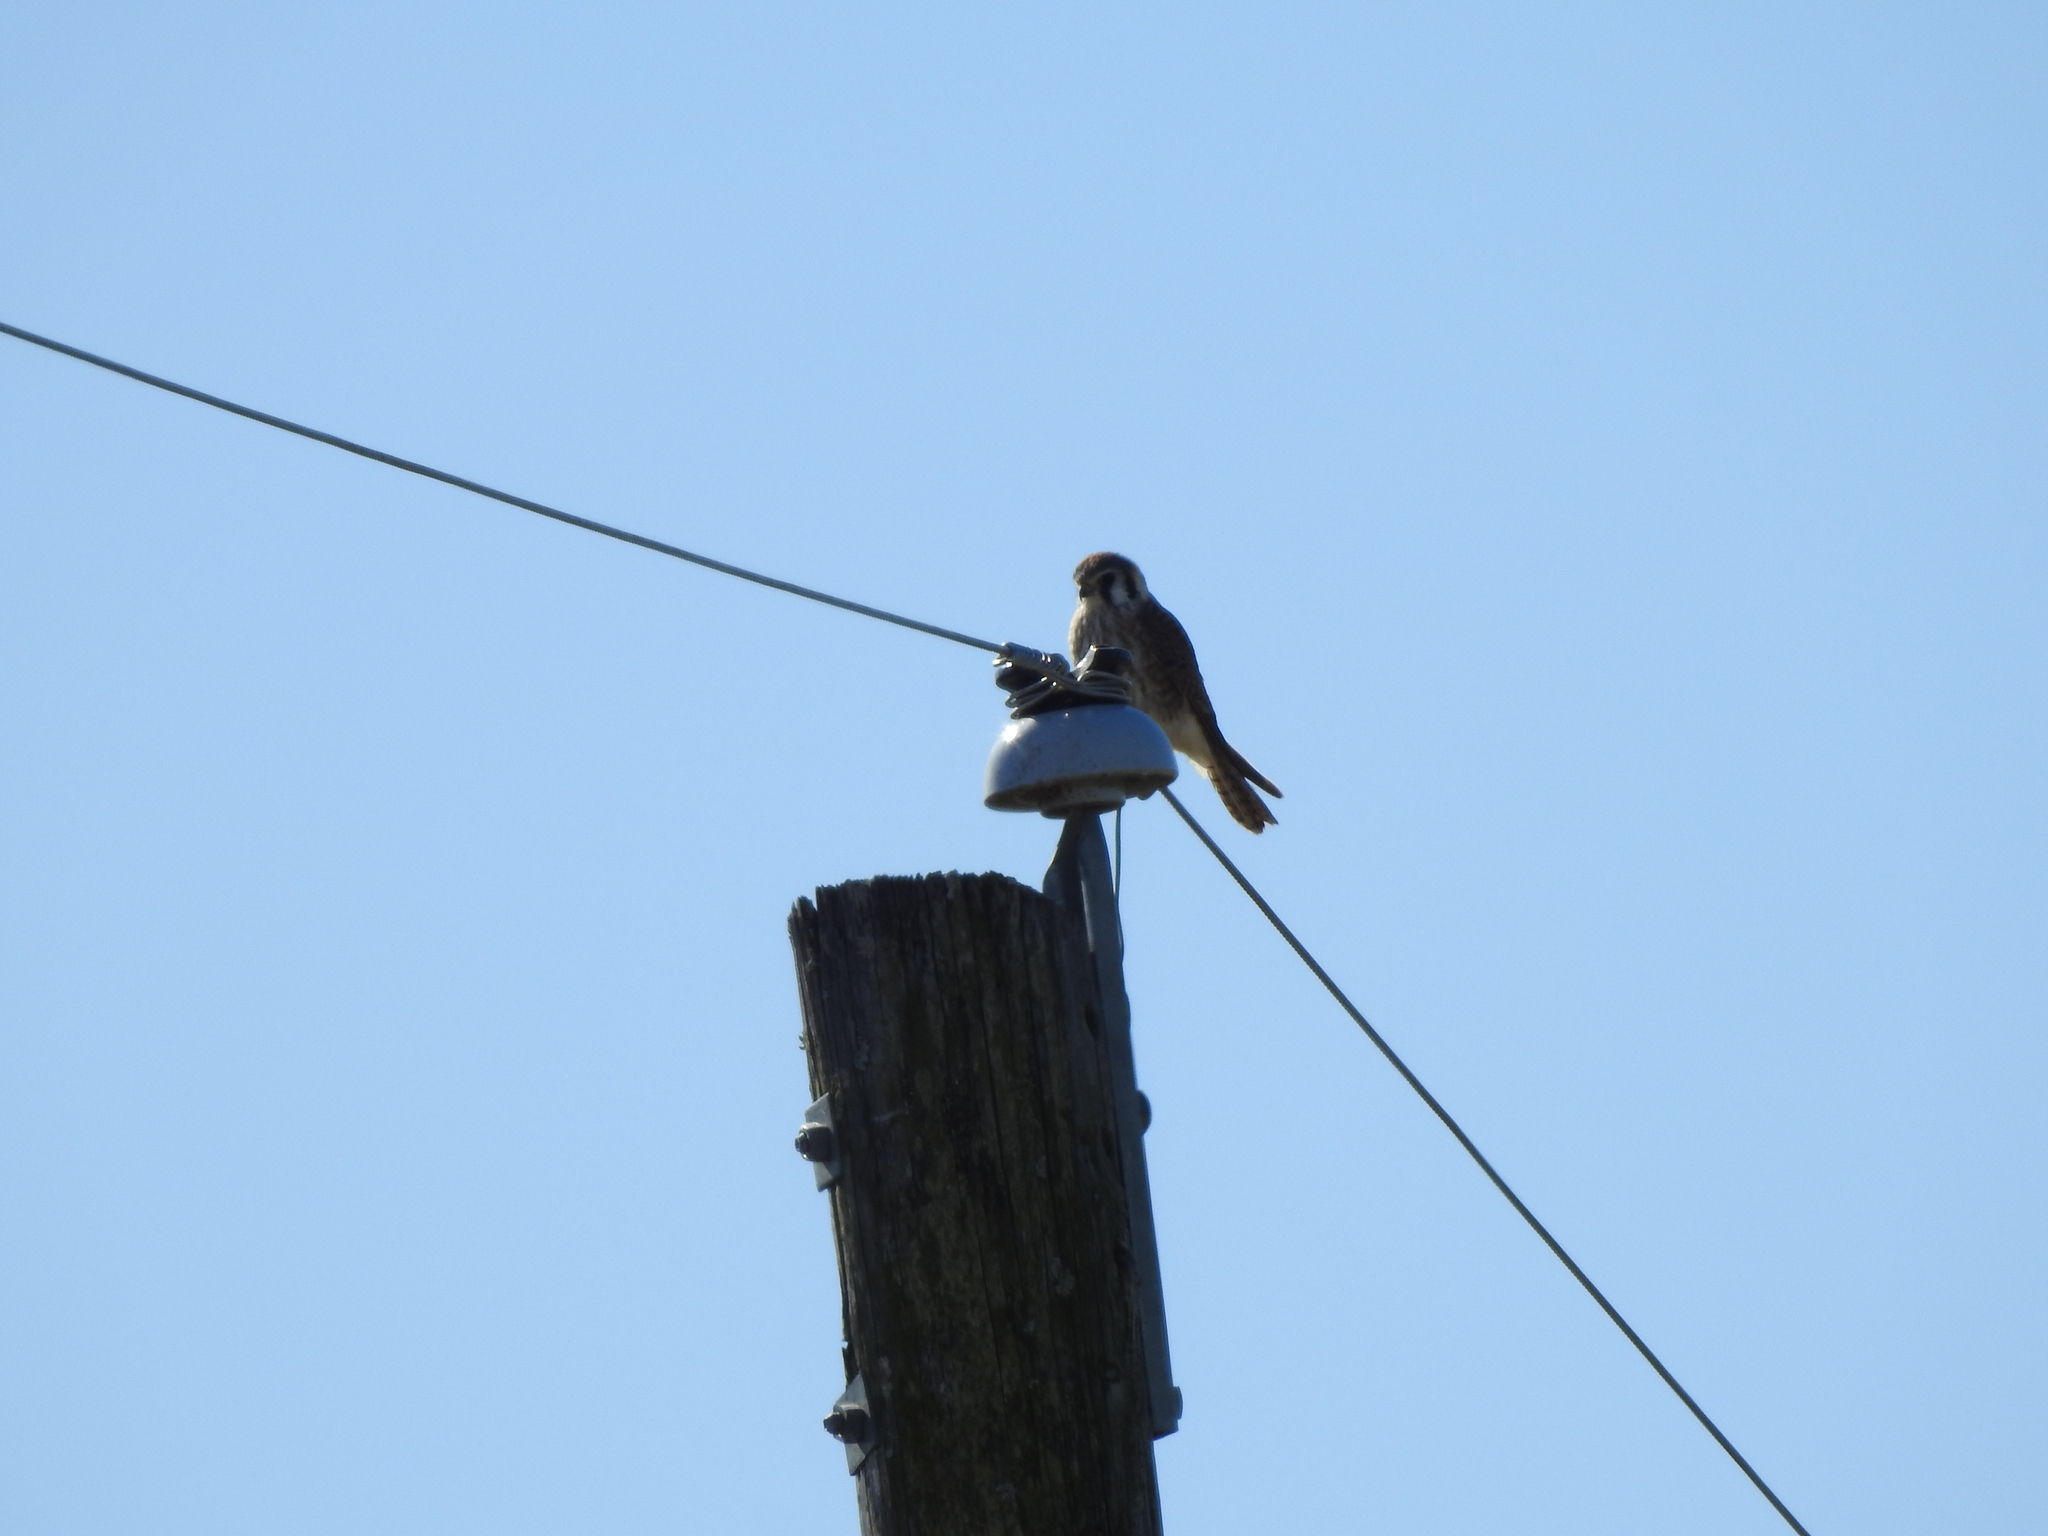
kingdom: Animalia
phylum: Chordata
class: Aves
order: Falconiformes
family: Falconidae
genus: Falco
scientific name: Falco sparverius
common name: American kestrel
